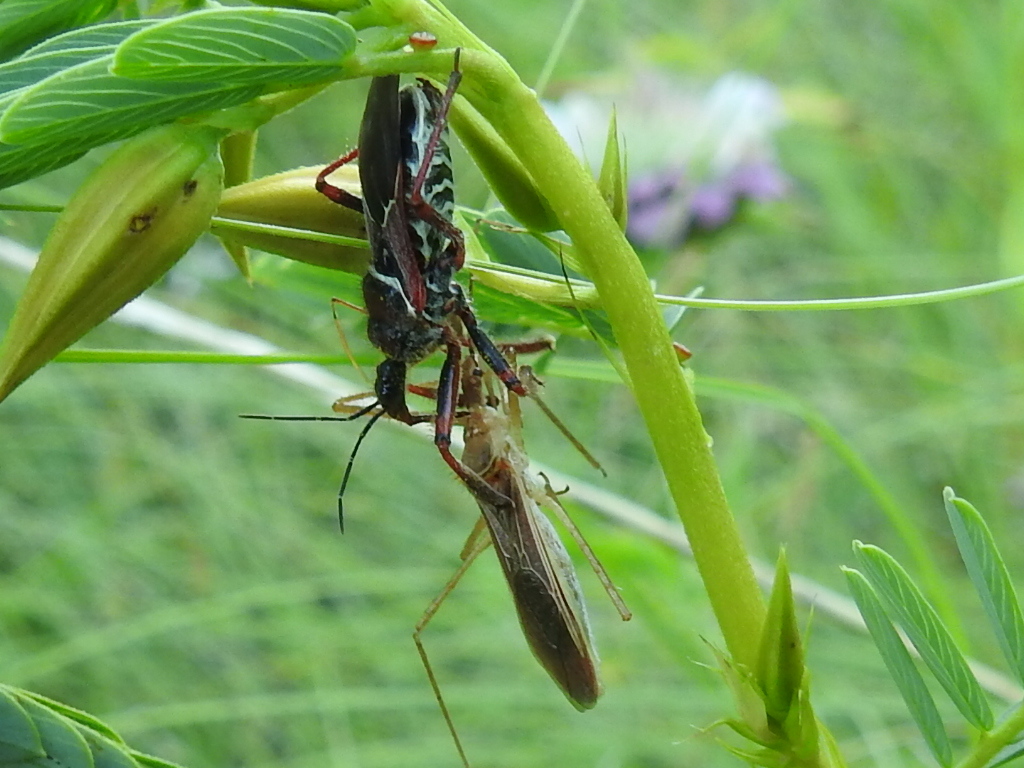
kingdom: Animalia
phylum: Arthropoda
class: Insecta
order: Hemiptera
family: Reduviidae
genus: Apiomerus
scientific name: Apiomerus spissipes
